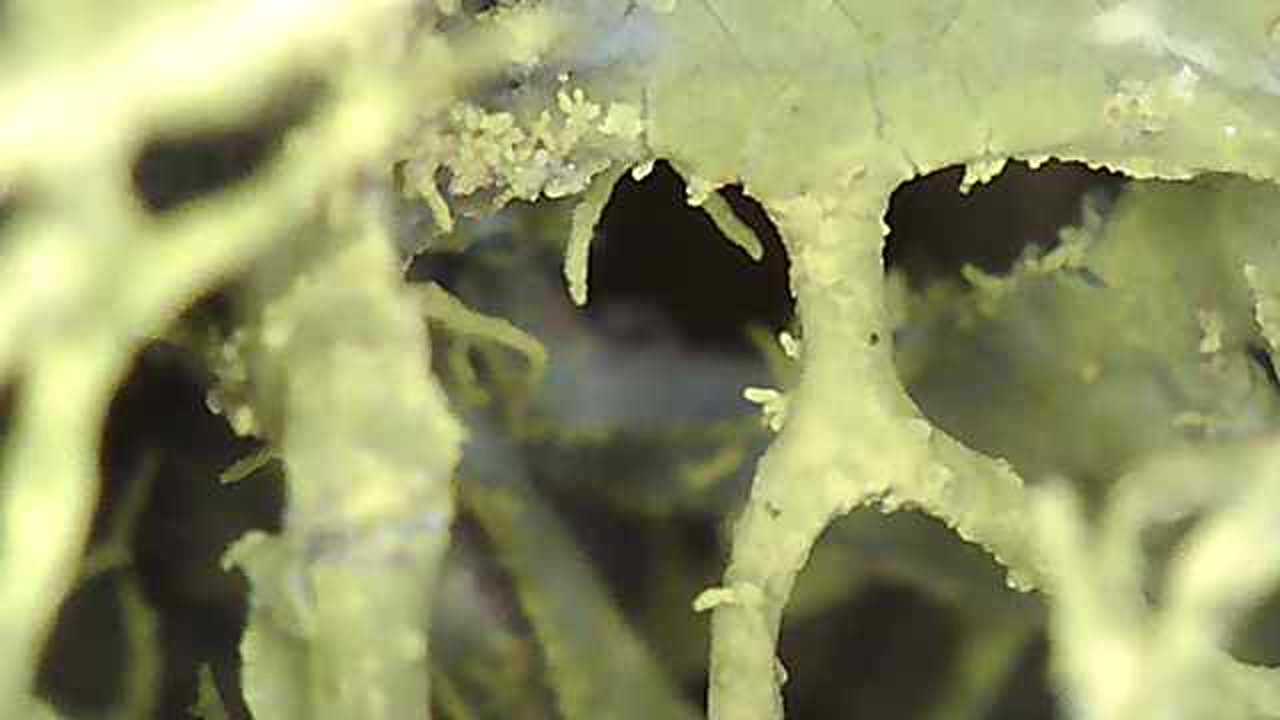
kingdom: Fungi
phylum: Ascomycota
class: Lecanoromycetes
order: Lecanorales
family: Parmeliaceae
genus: Letharia
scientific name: Letharia vulpina
